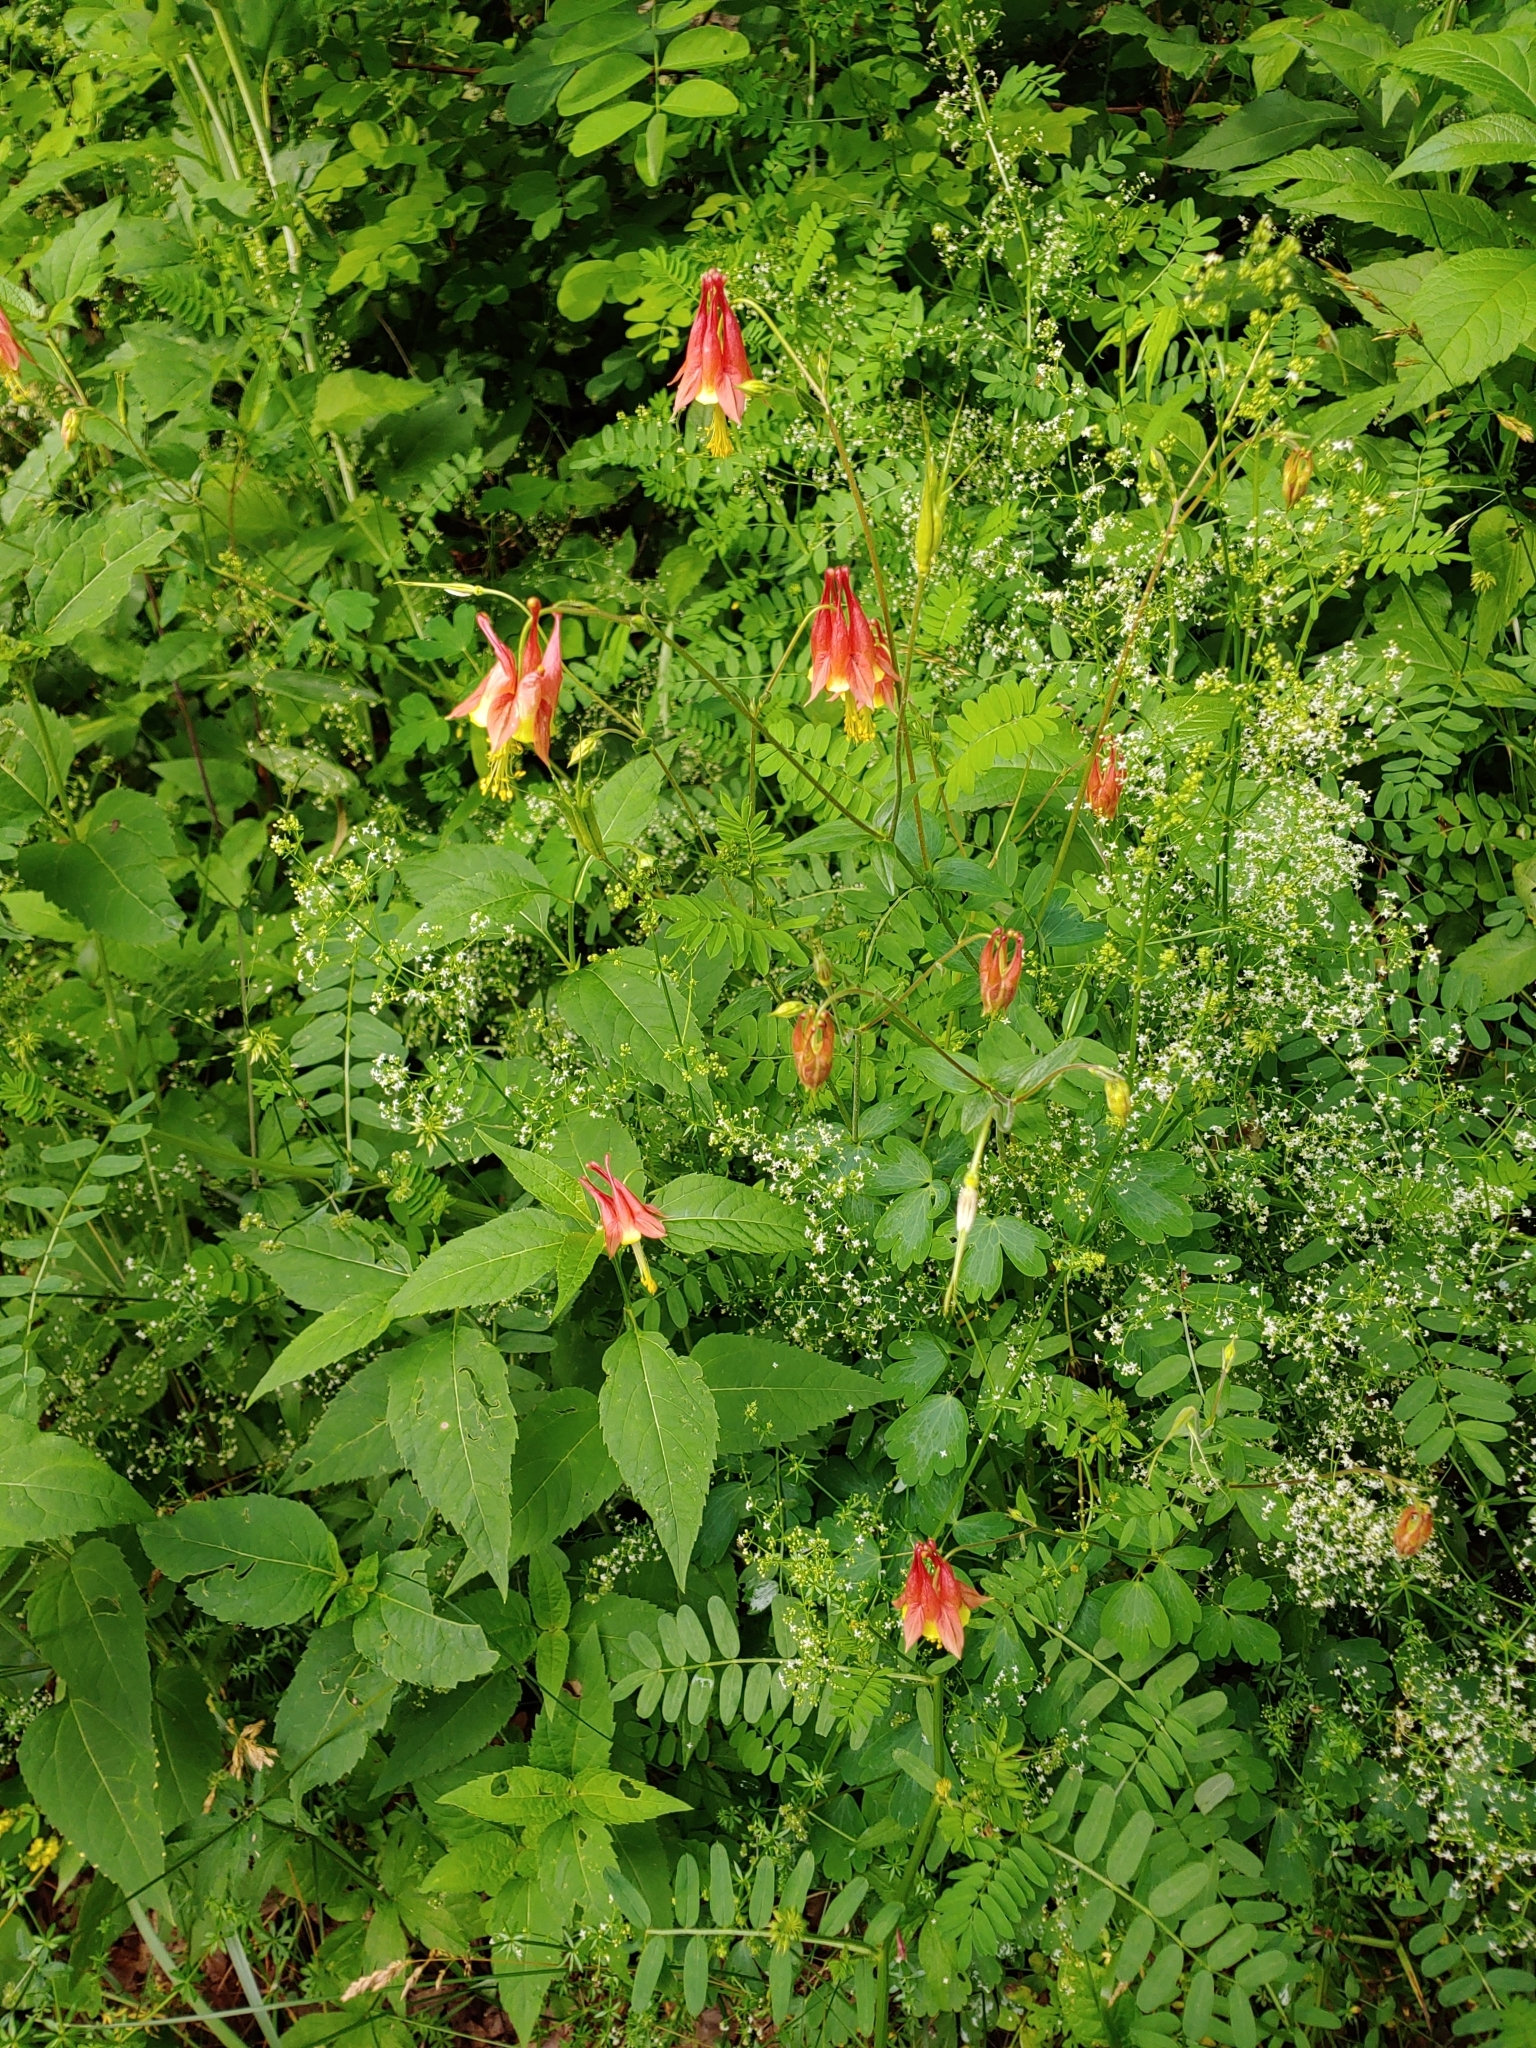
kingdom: Plantae
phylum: Tracheophyta
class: Magnoliopsida
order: Ranunculales
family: Ranunculaceae
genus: Aquilegia
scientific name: Aquilegia canadensis
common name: American columbine
